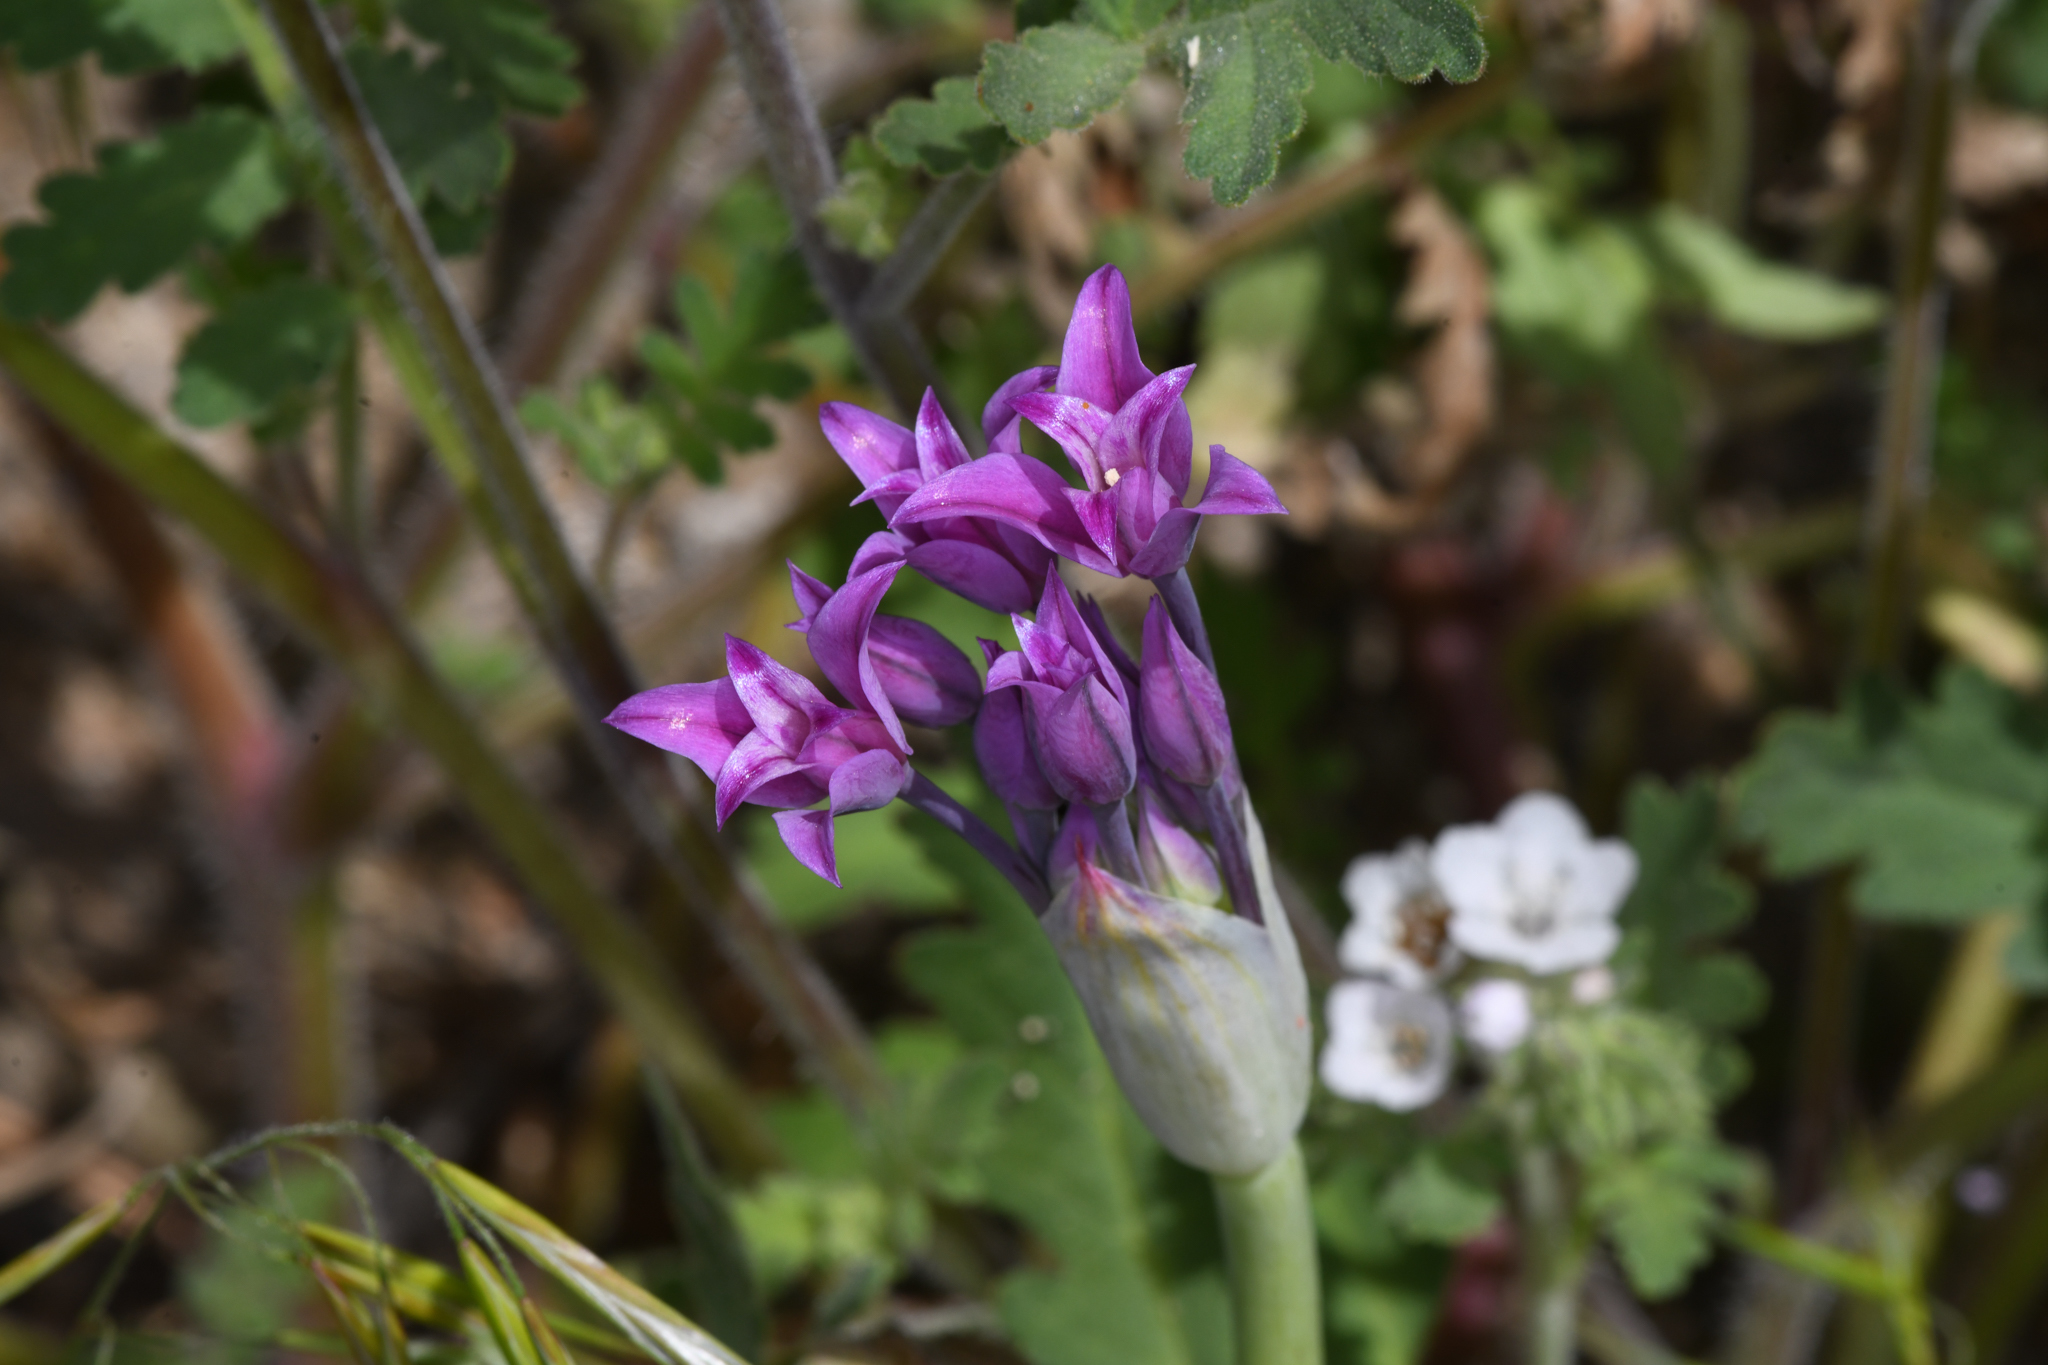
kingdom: Plantae
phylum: Tracheophyta
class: Liliopsida
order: Asparagales
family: Amaryllidaceae
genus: Allium
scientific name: Allium peninsulare
